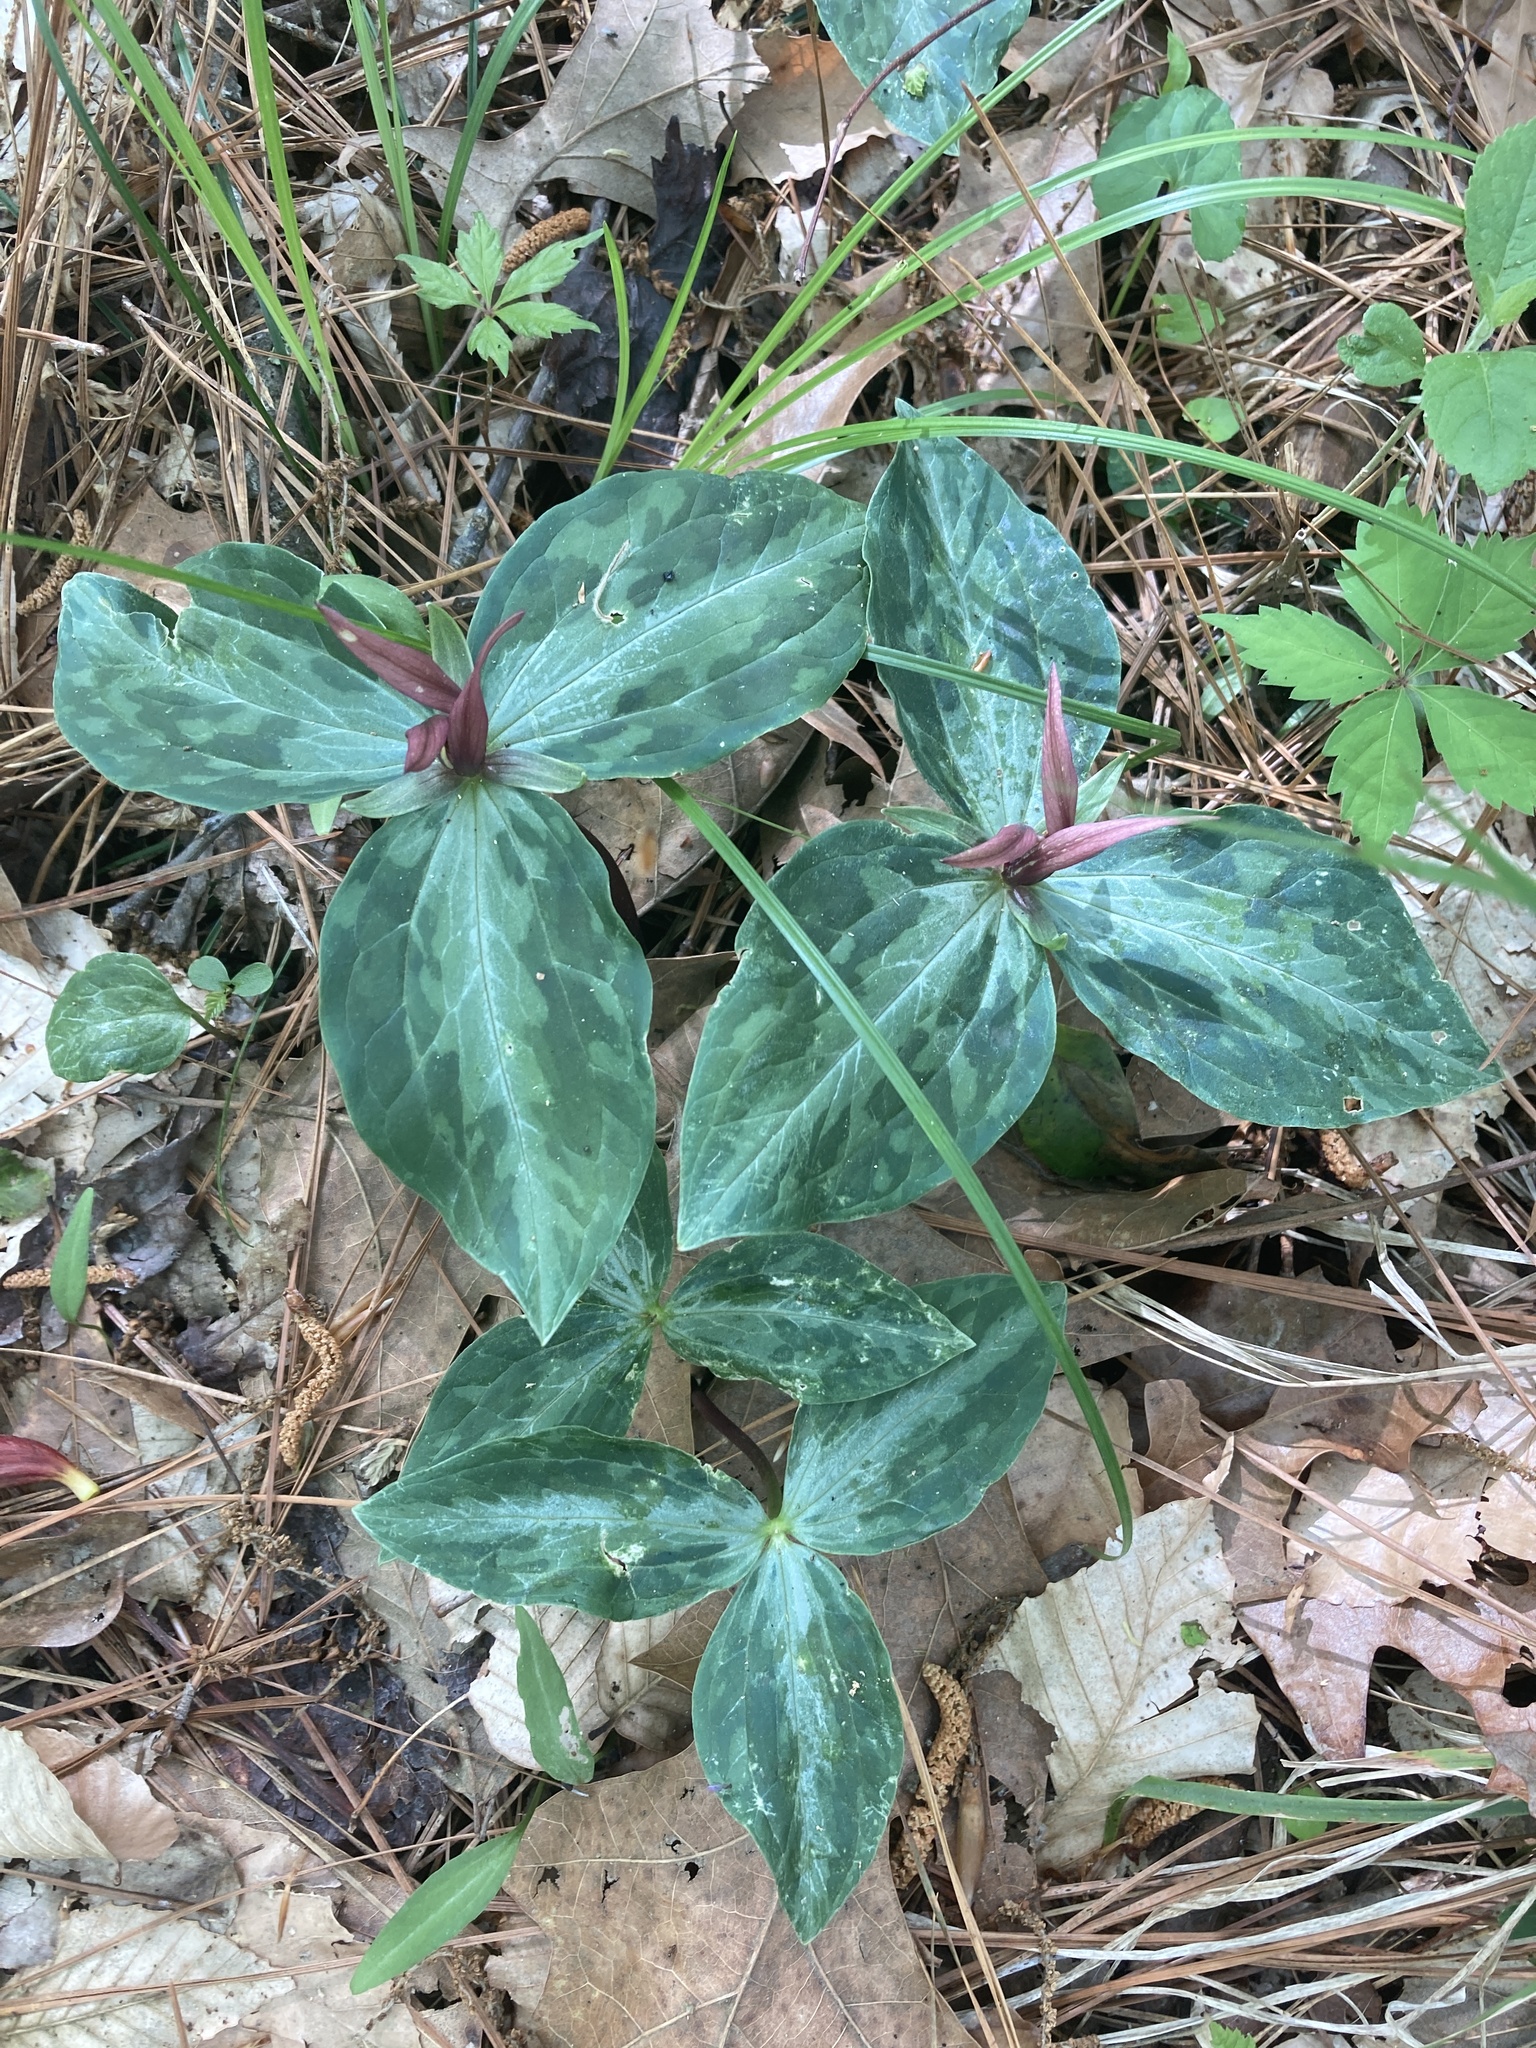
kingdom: Plantae
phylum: Tracheophyta
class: Liliopsida
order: Liliales
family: Melanthiaceae
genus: Trillium
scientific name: Trillium foetidissimum
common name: Mississippi river trillium
